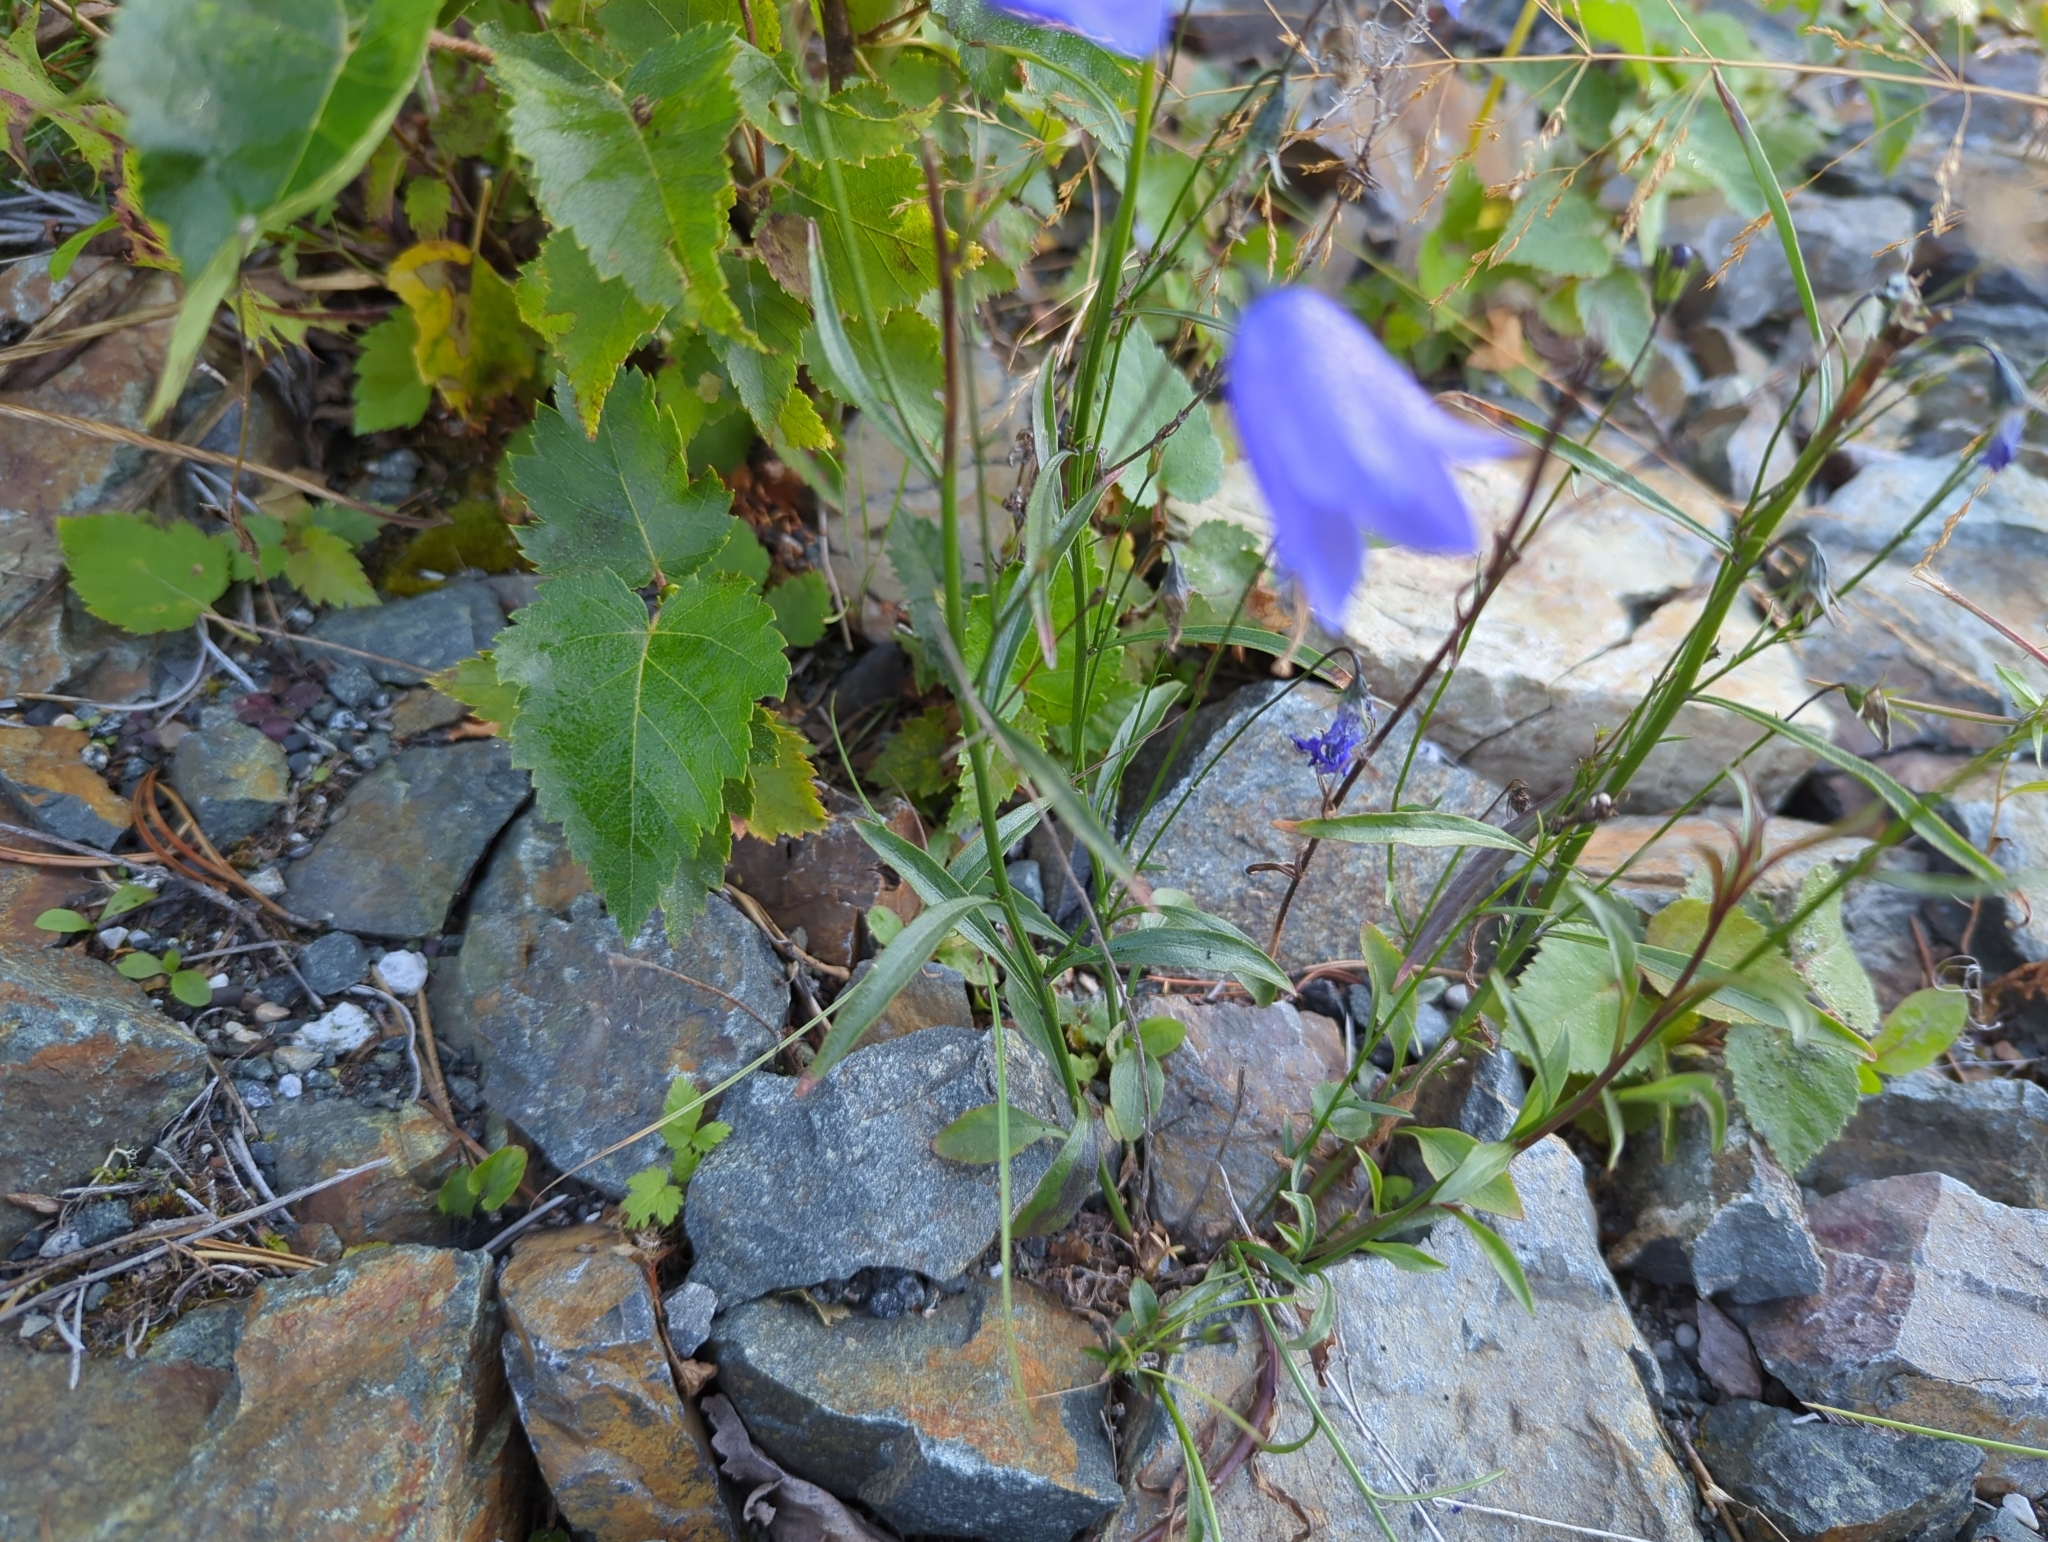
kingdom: Plantae
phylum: Tracheophyta
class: Magnoliopsida
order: Asterales
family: Campanulaceae
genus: Campanula
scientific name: Campanula alaskana
